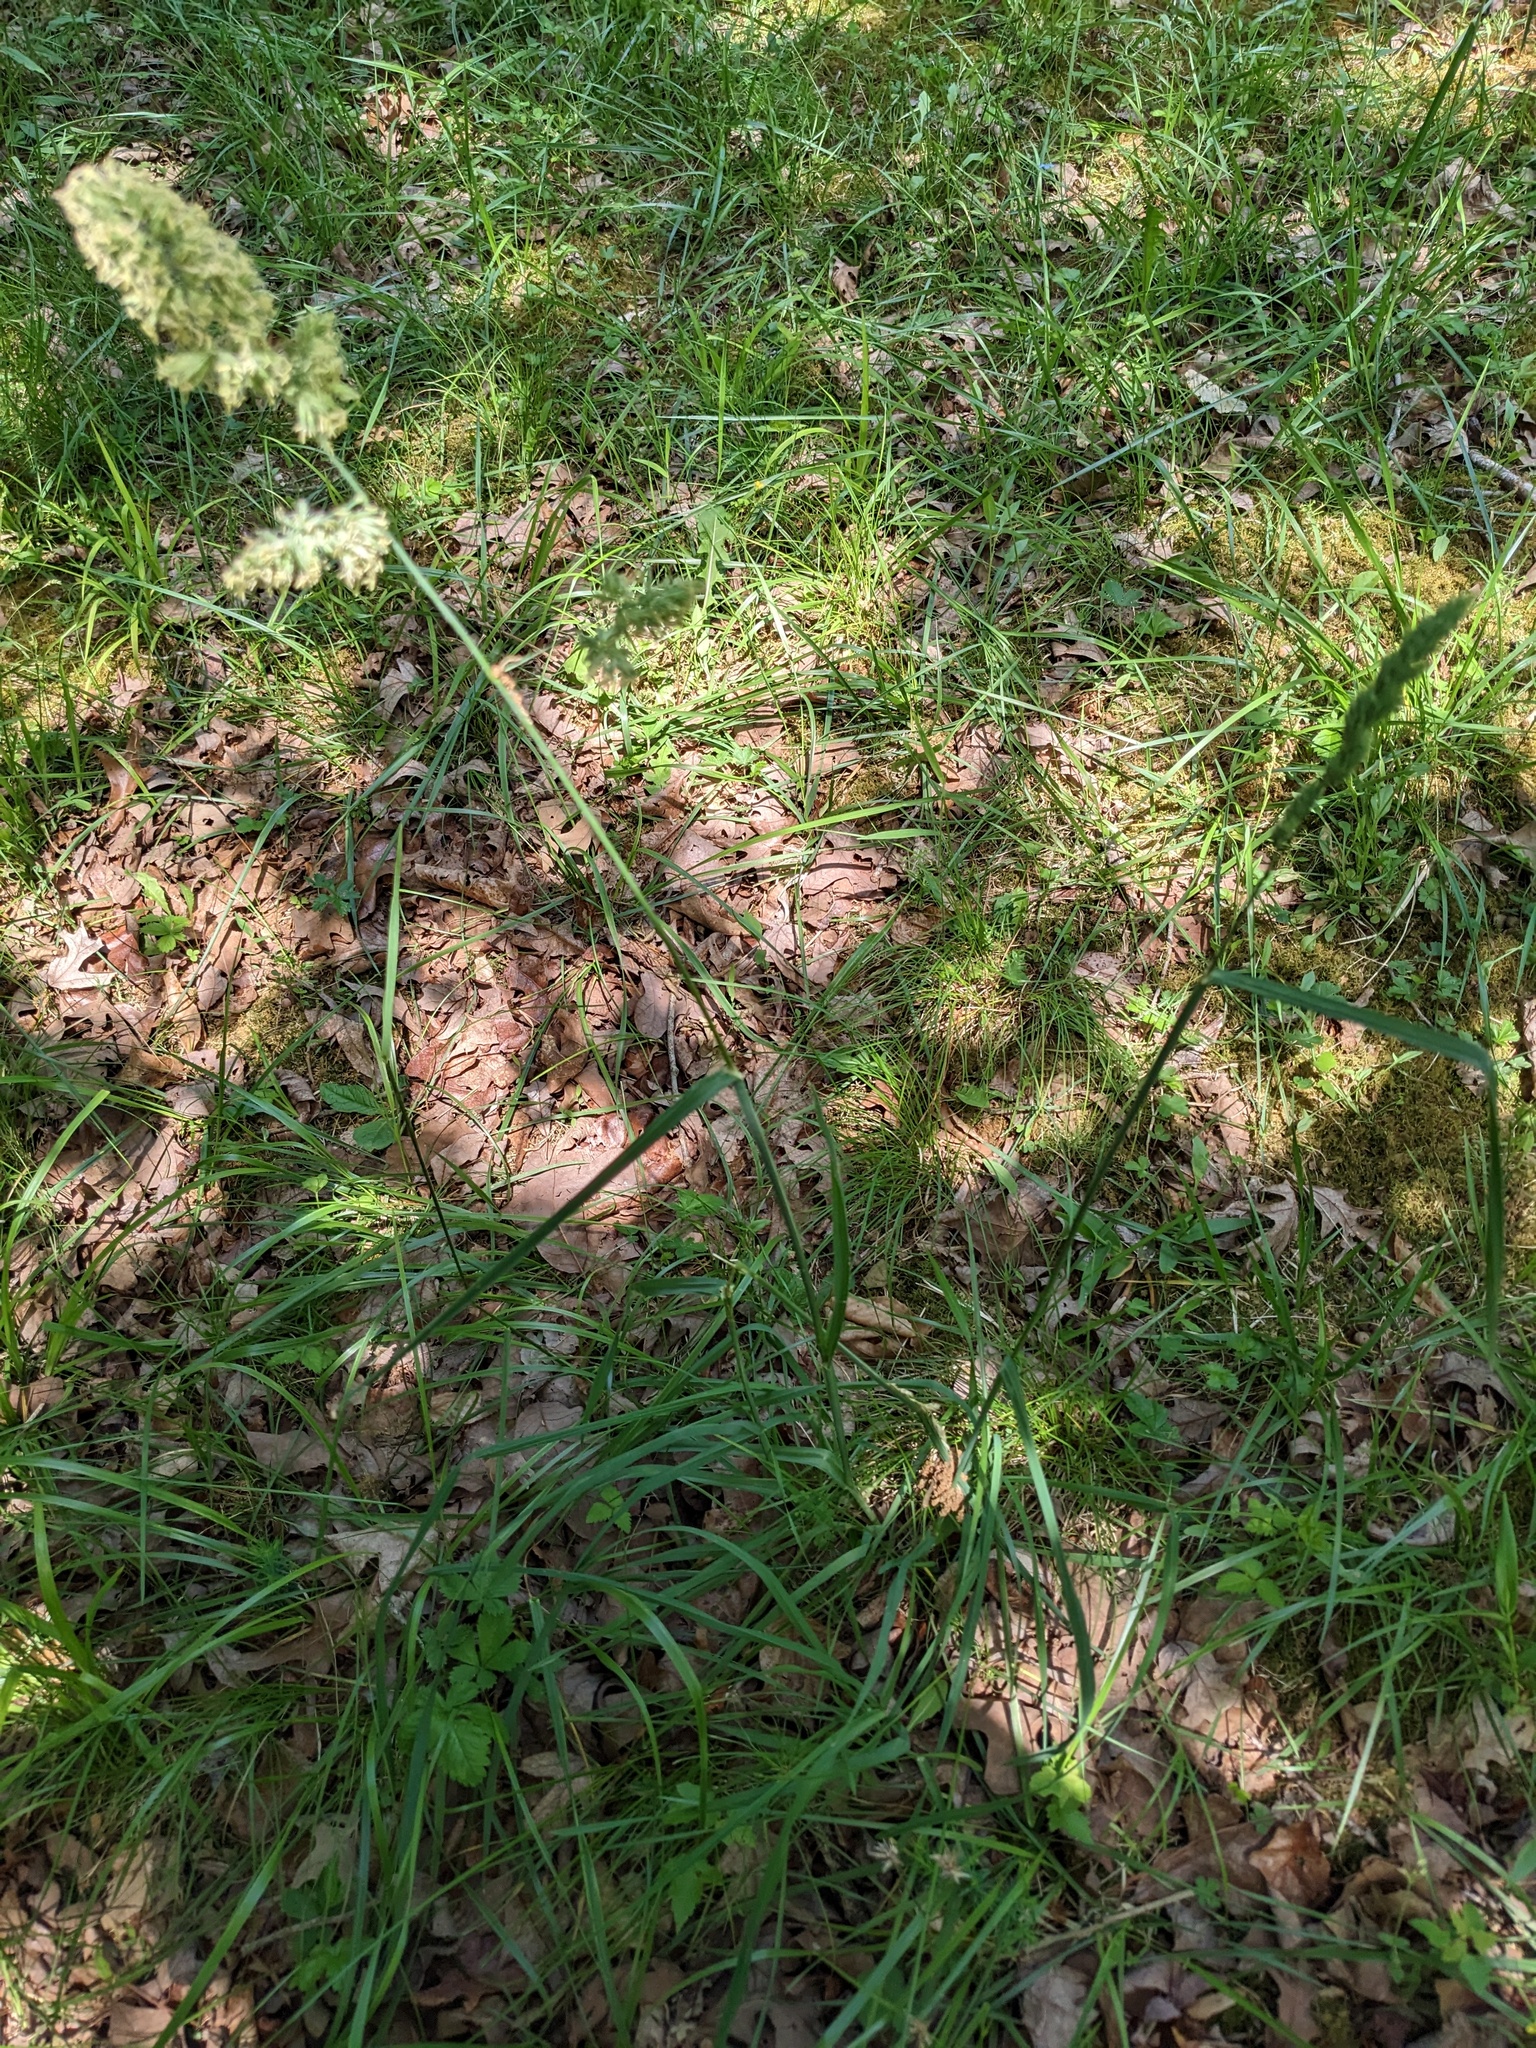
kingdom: Plantae
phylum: Tracheophyta
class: Liliopsida
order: Poales
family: Poaceae
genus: Dactylis
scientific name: Dactylis glomerata
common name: Orchardgrass
